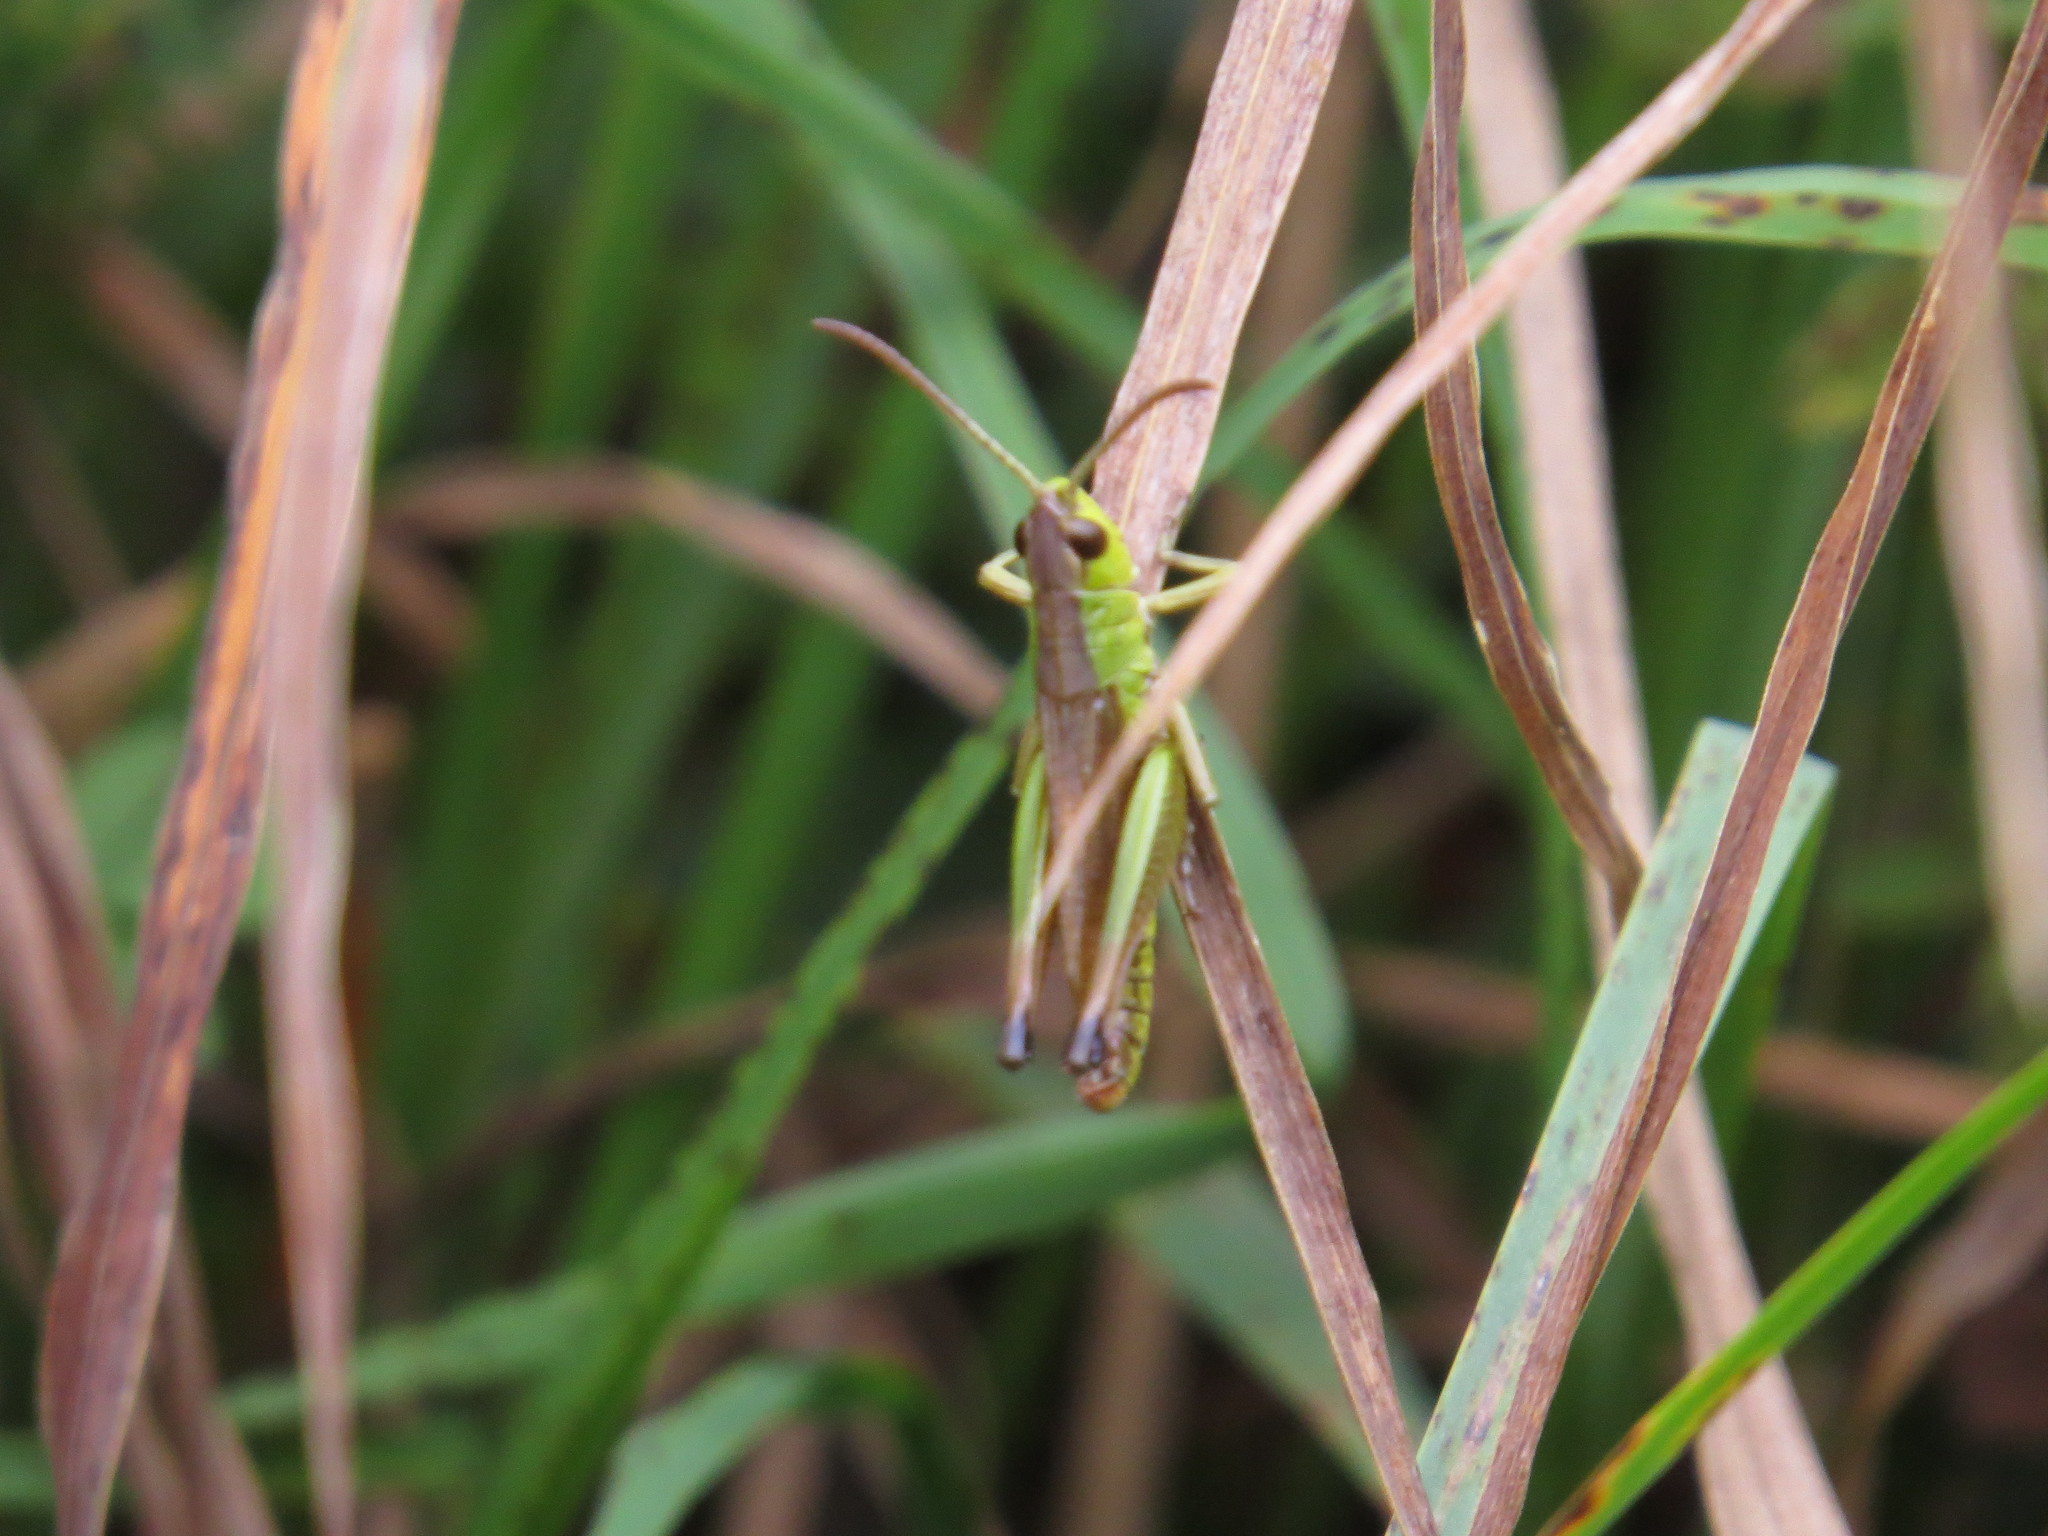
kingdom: Animalia
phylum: Arthropoda
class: Insecta
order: Orthoptera
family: Acrididae
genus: Pseudochorthippus
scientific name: Pseudochorthippus parallelus
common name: Meadow grasshopper
